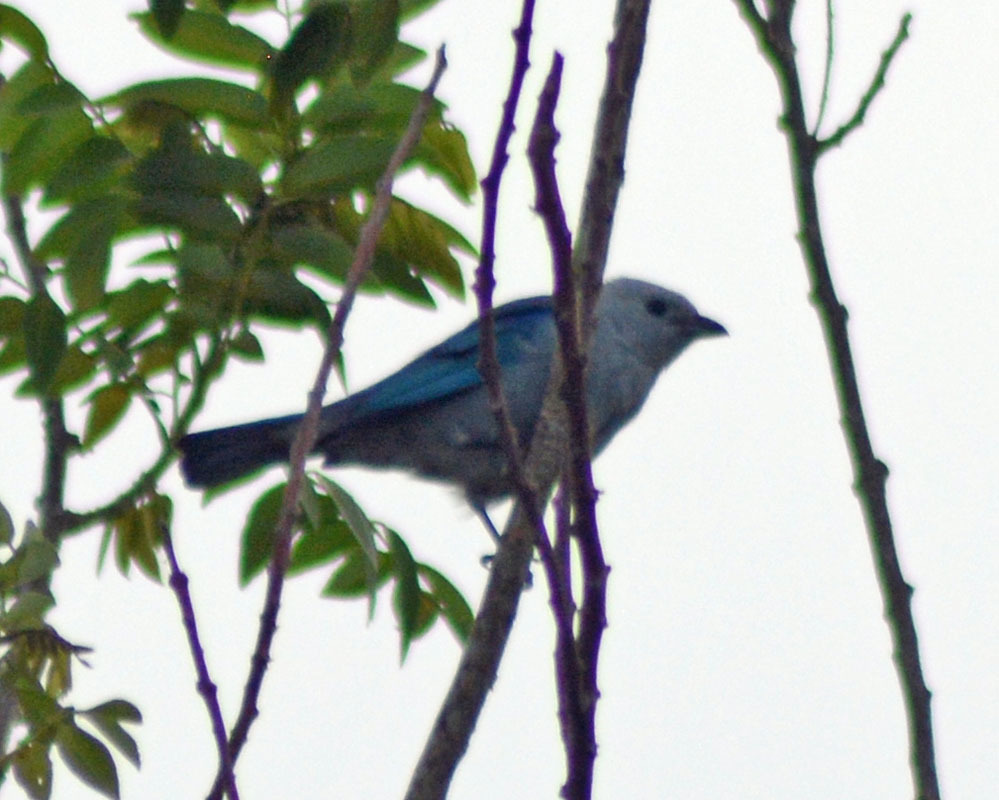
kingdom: Animalia
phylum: Chordata
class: Aves
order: Passeriformes
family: Thraupidae
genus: Thraupis
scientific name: Thraupis episcopus
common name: Blue-grey tanager
